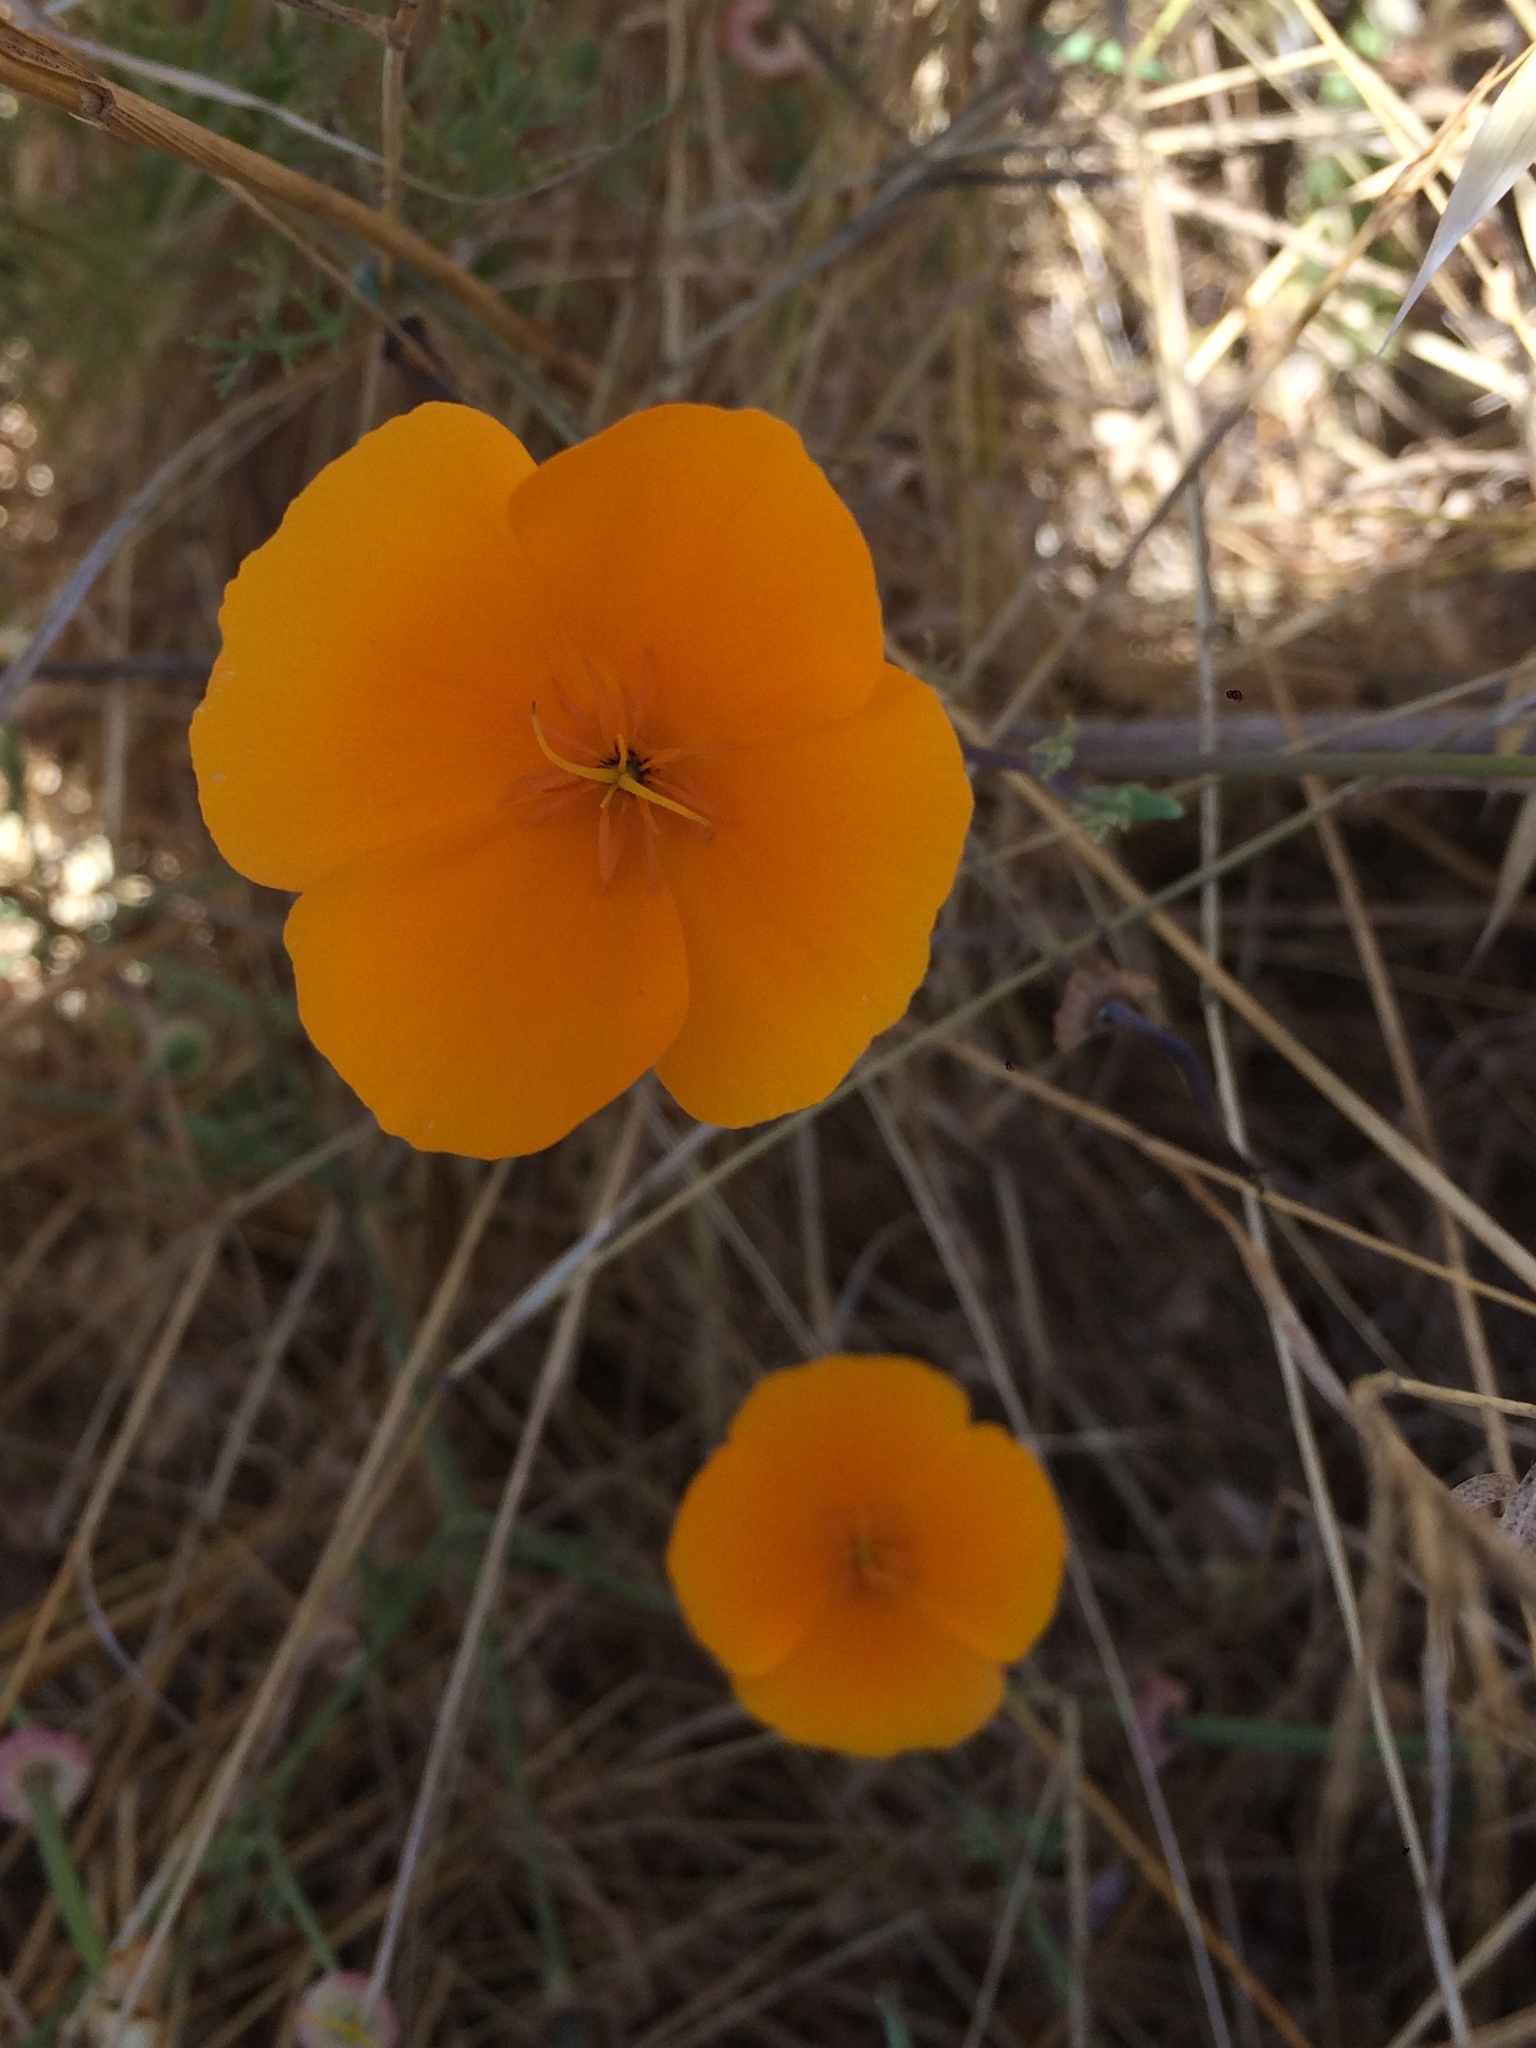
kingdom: Plantae
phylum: Tracheophyta
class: Magnoliopsida
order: Ranunculales
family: Papaveraceae
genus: Eschscholzia
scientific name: Eschscholzia californica
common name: California poppy
